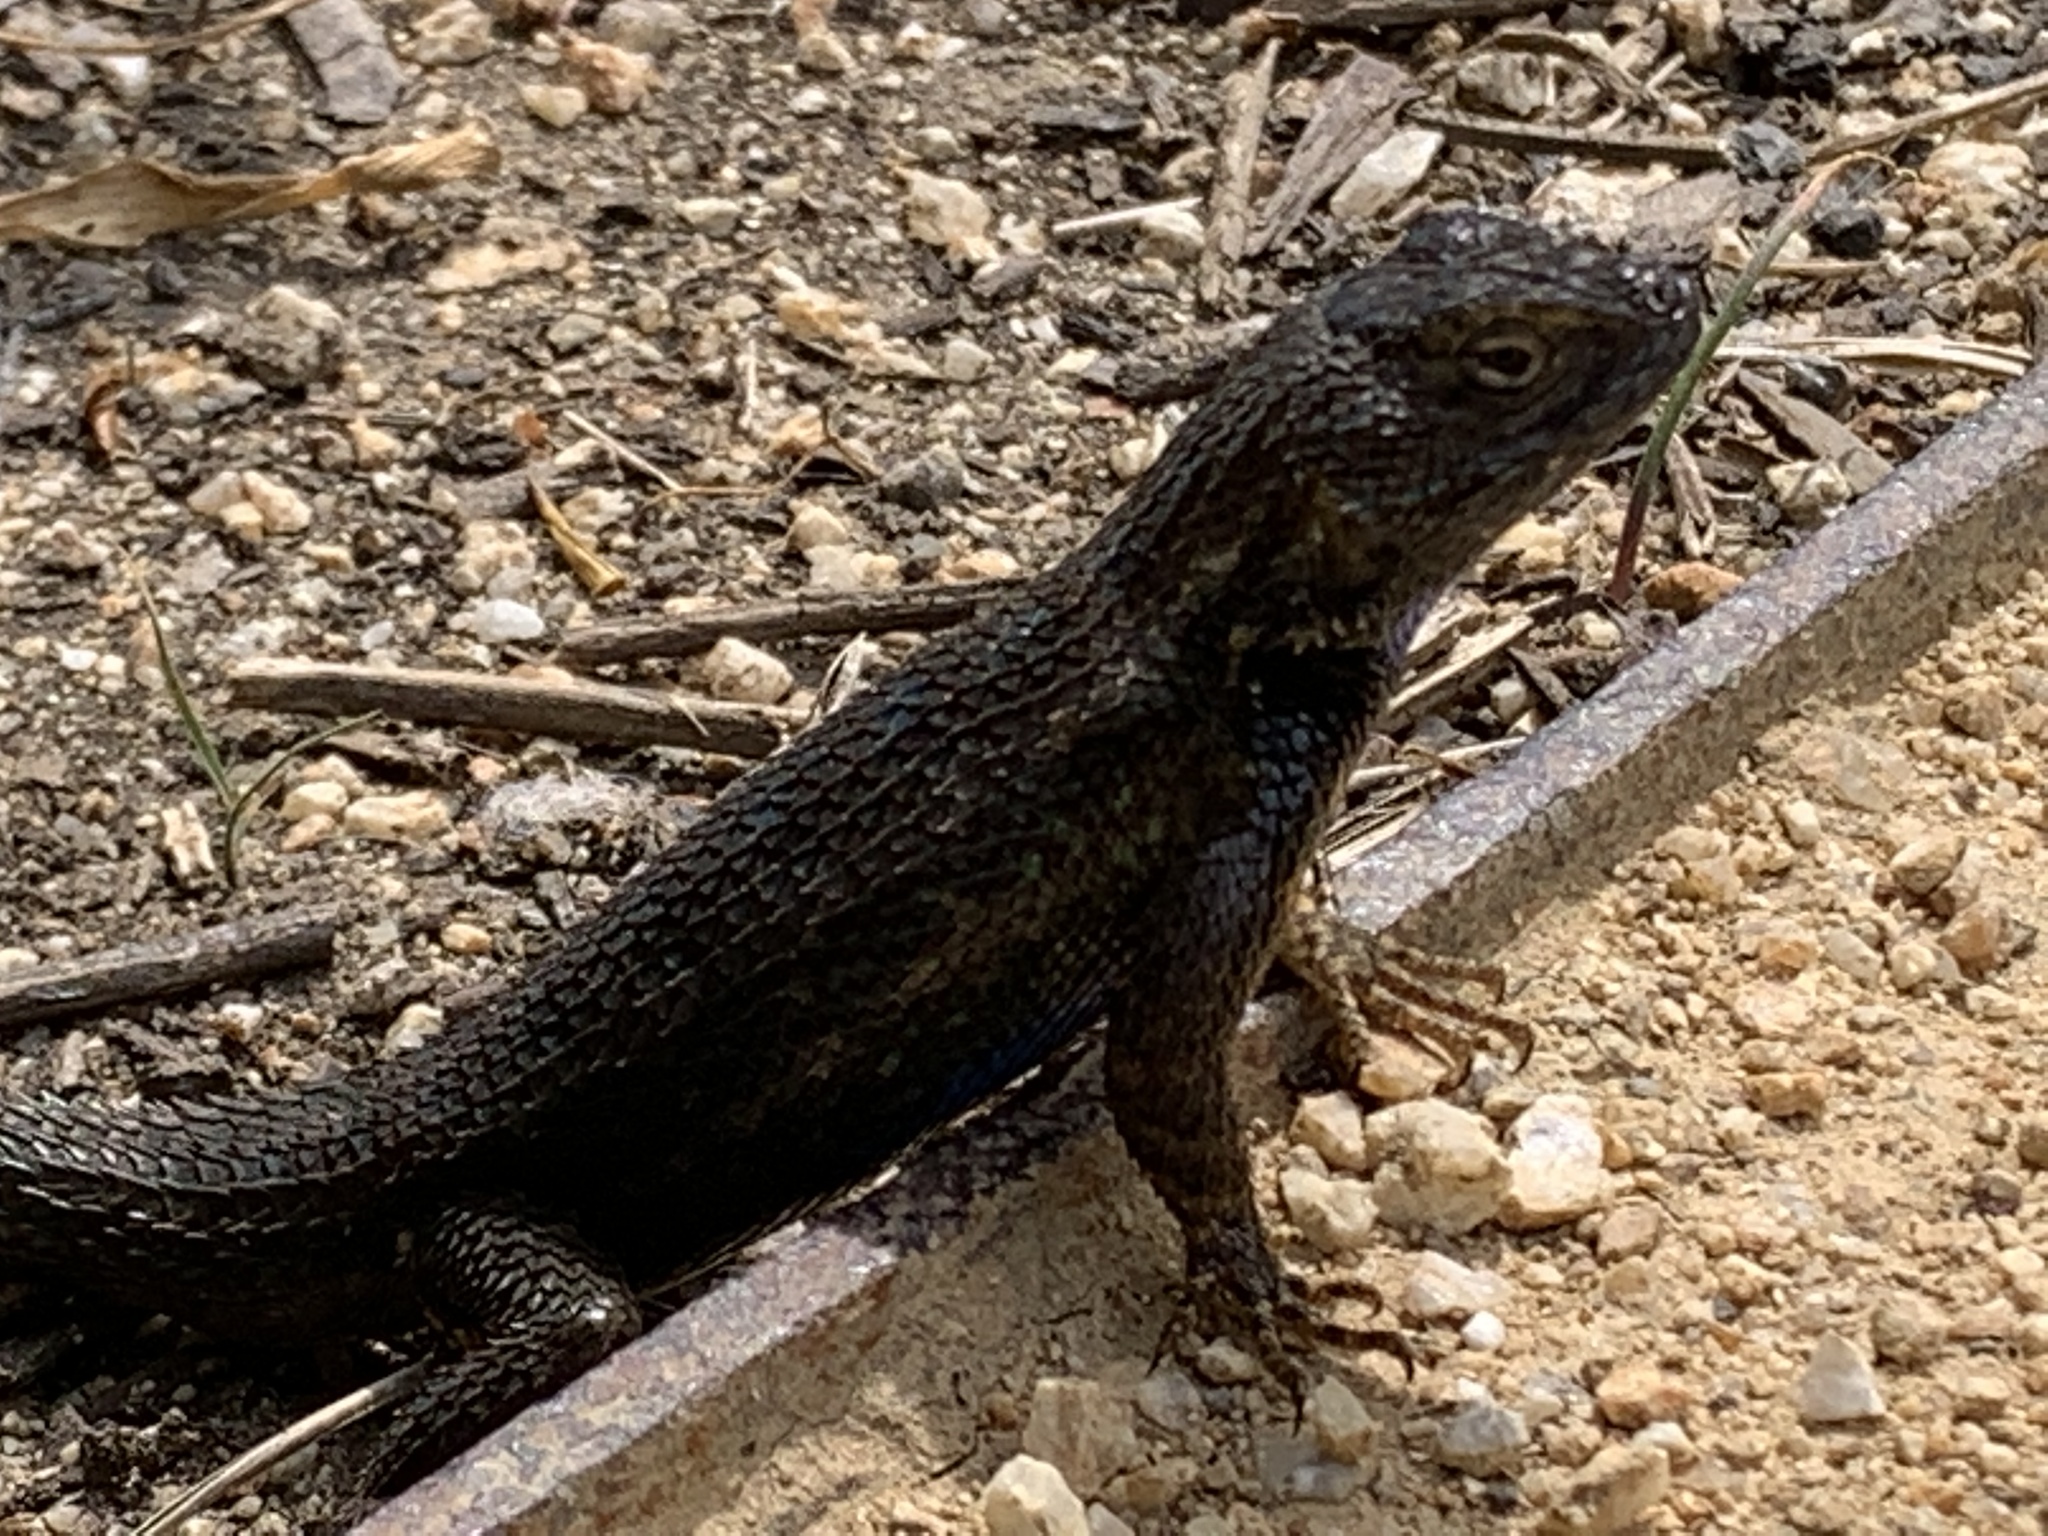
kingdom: Animalia
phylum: Chordata
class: Squamata
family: Phrynosomatidae
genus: Sceloporus
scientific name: Sceloporus occidentalis
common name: Western fence lizard
